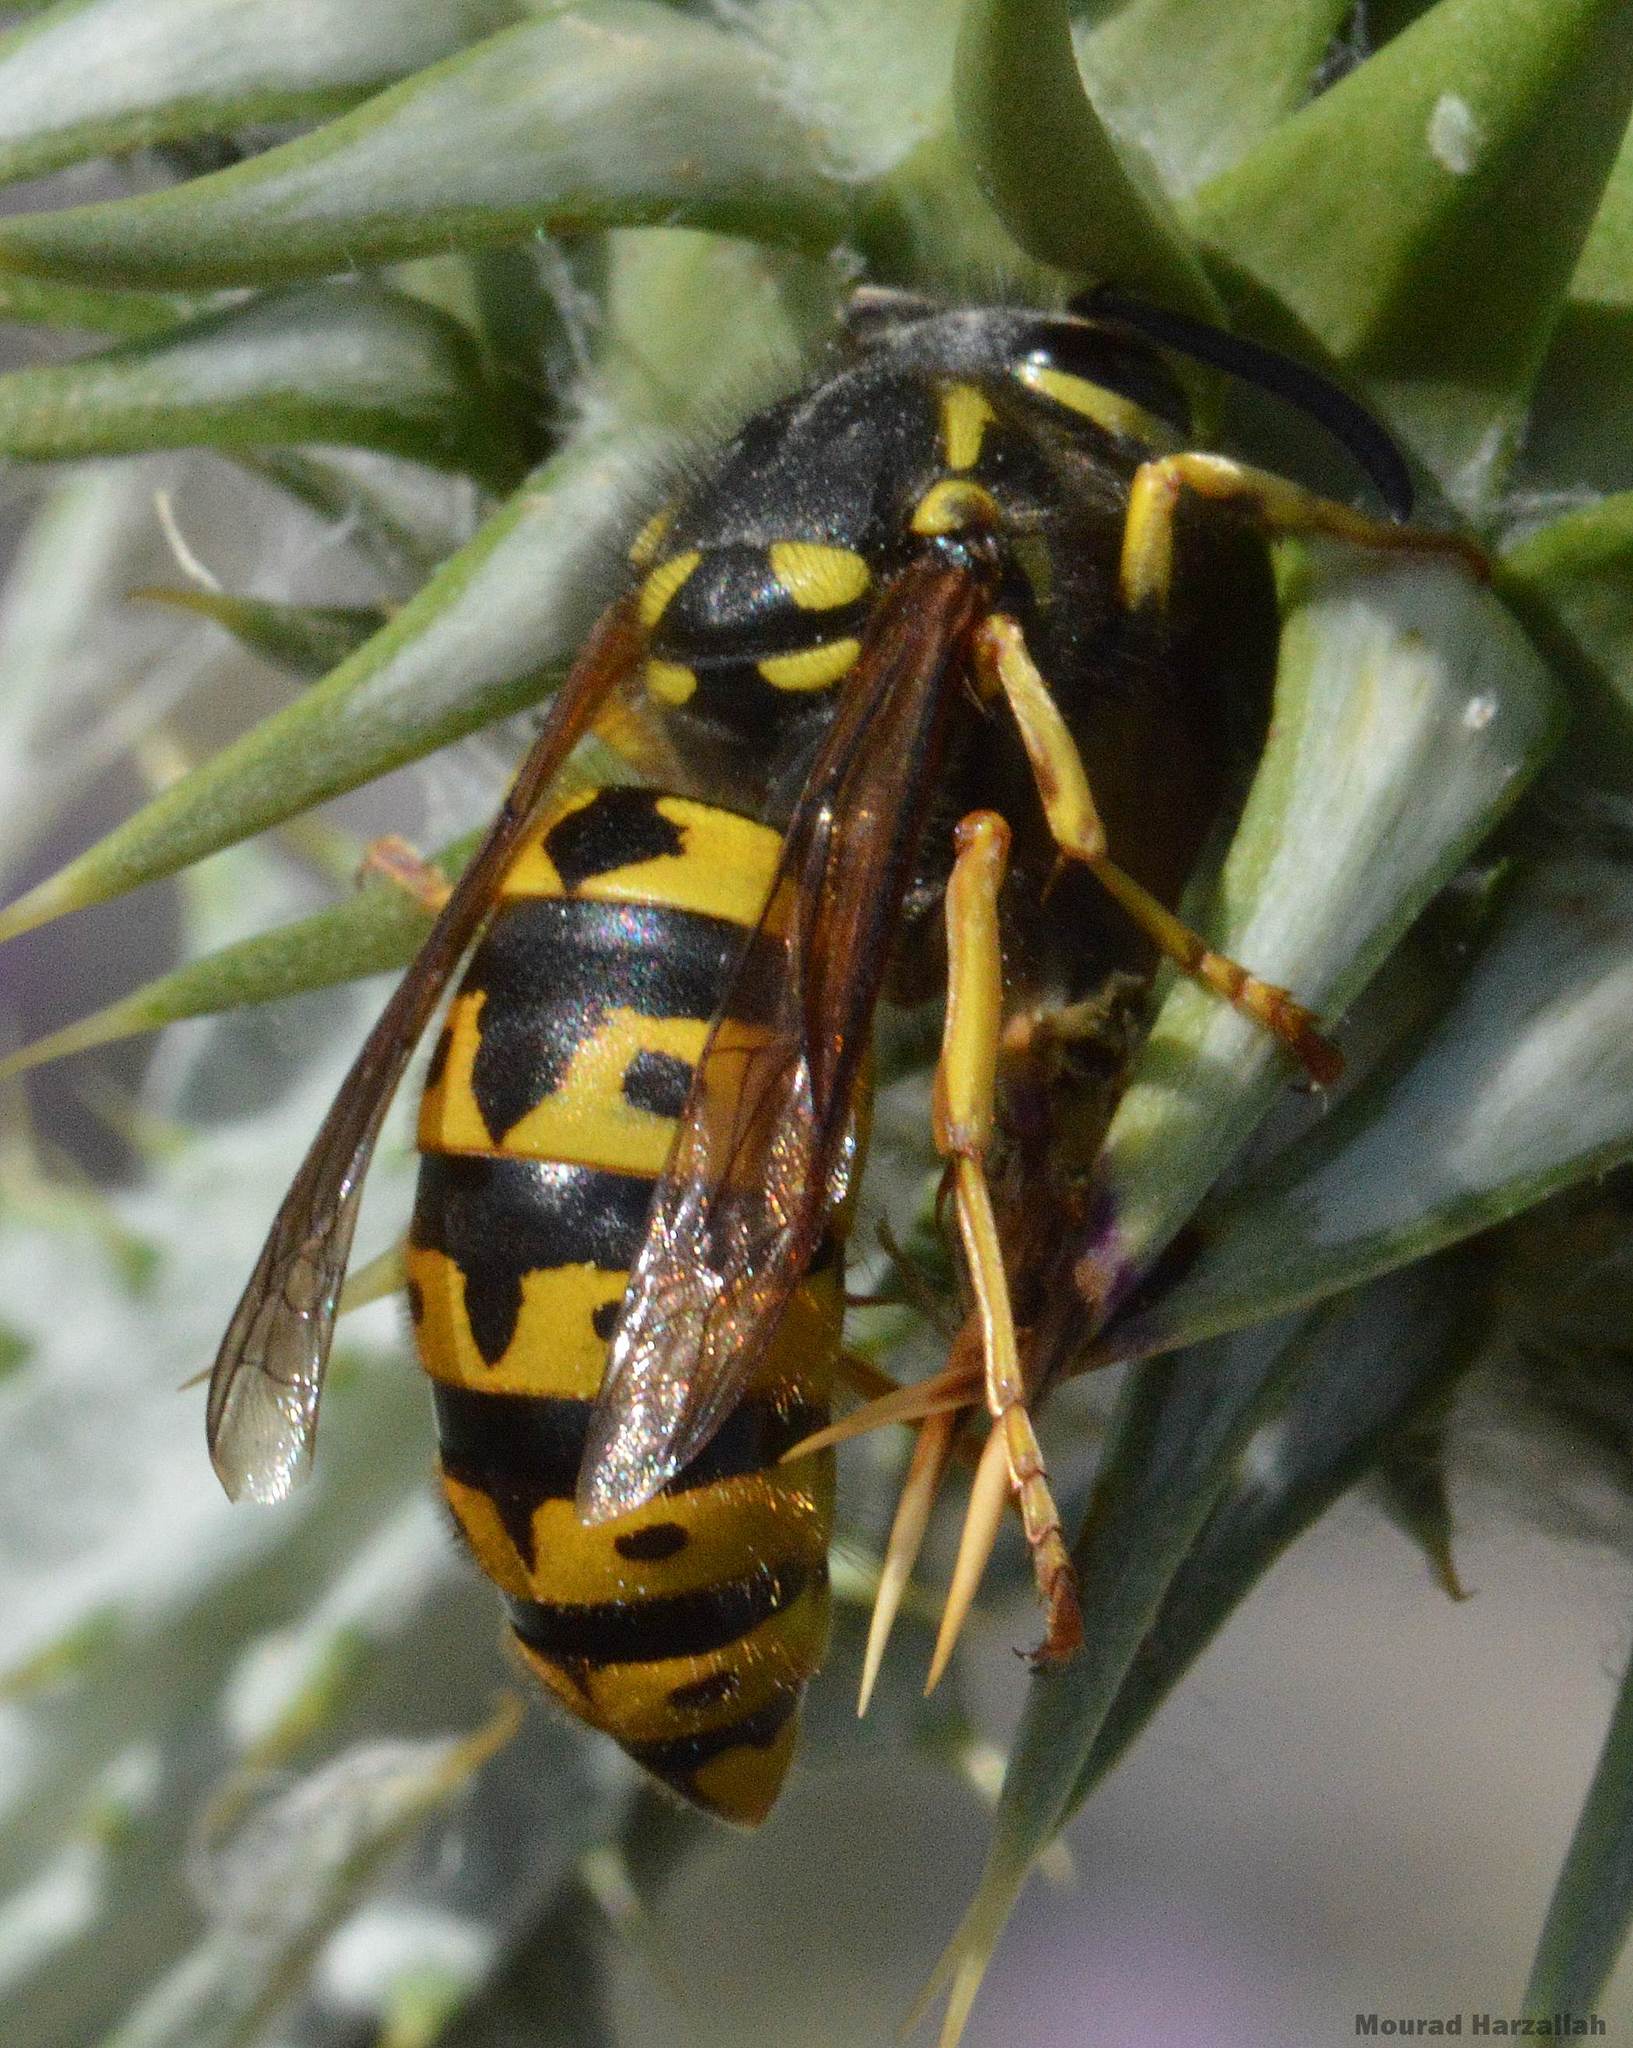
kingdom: Animalia
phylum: Arthropoda
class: Insecta
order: Hymenoptera
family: Vespidae
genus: Vespula
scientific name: Vespula germanica
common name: German wasp
